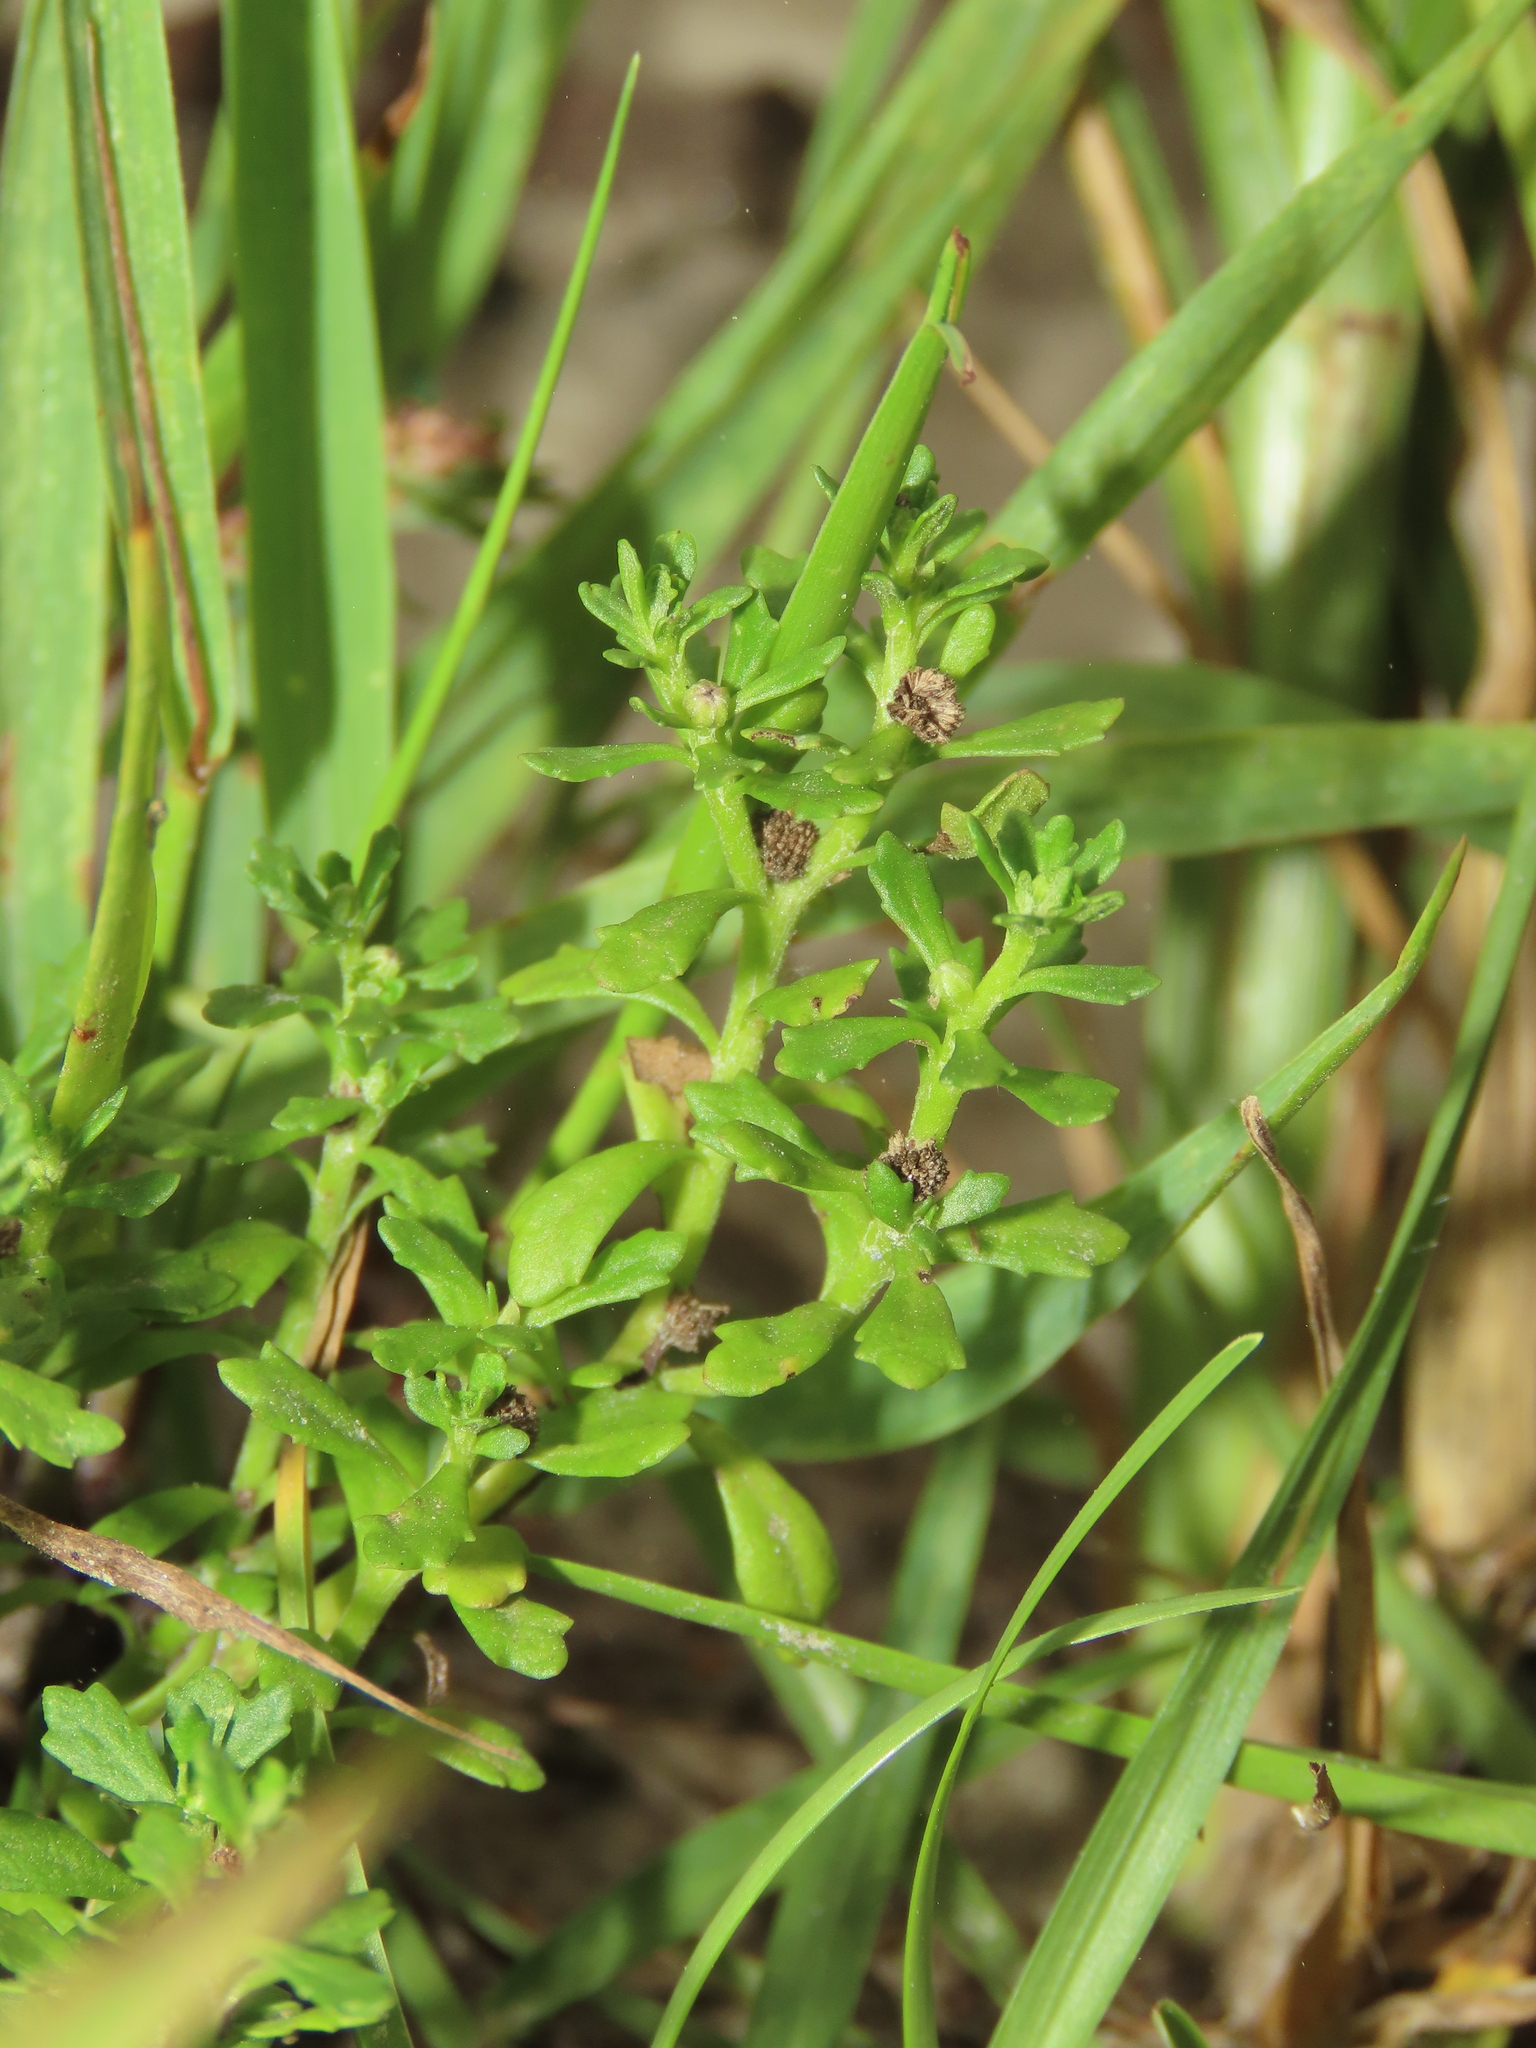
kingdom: Plantae
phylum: Tracheophyta
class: Magnoliopsida
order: Asterales
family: Asteraceae
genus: Centipeda
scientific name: Centipeda minima
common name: Spreading sneezeweed
